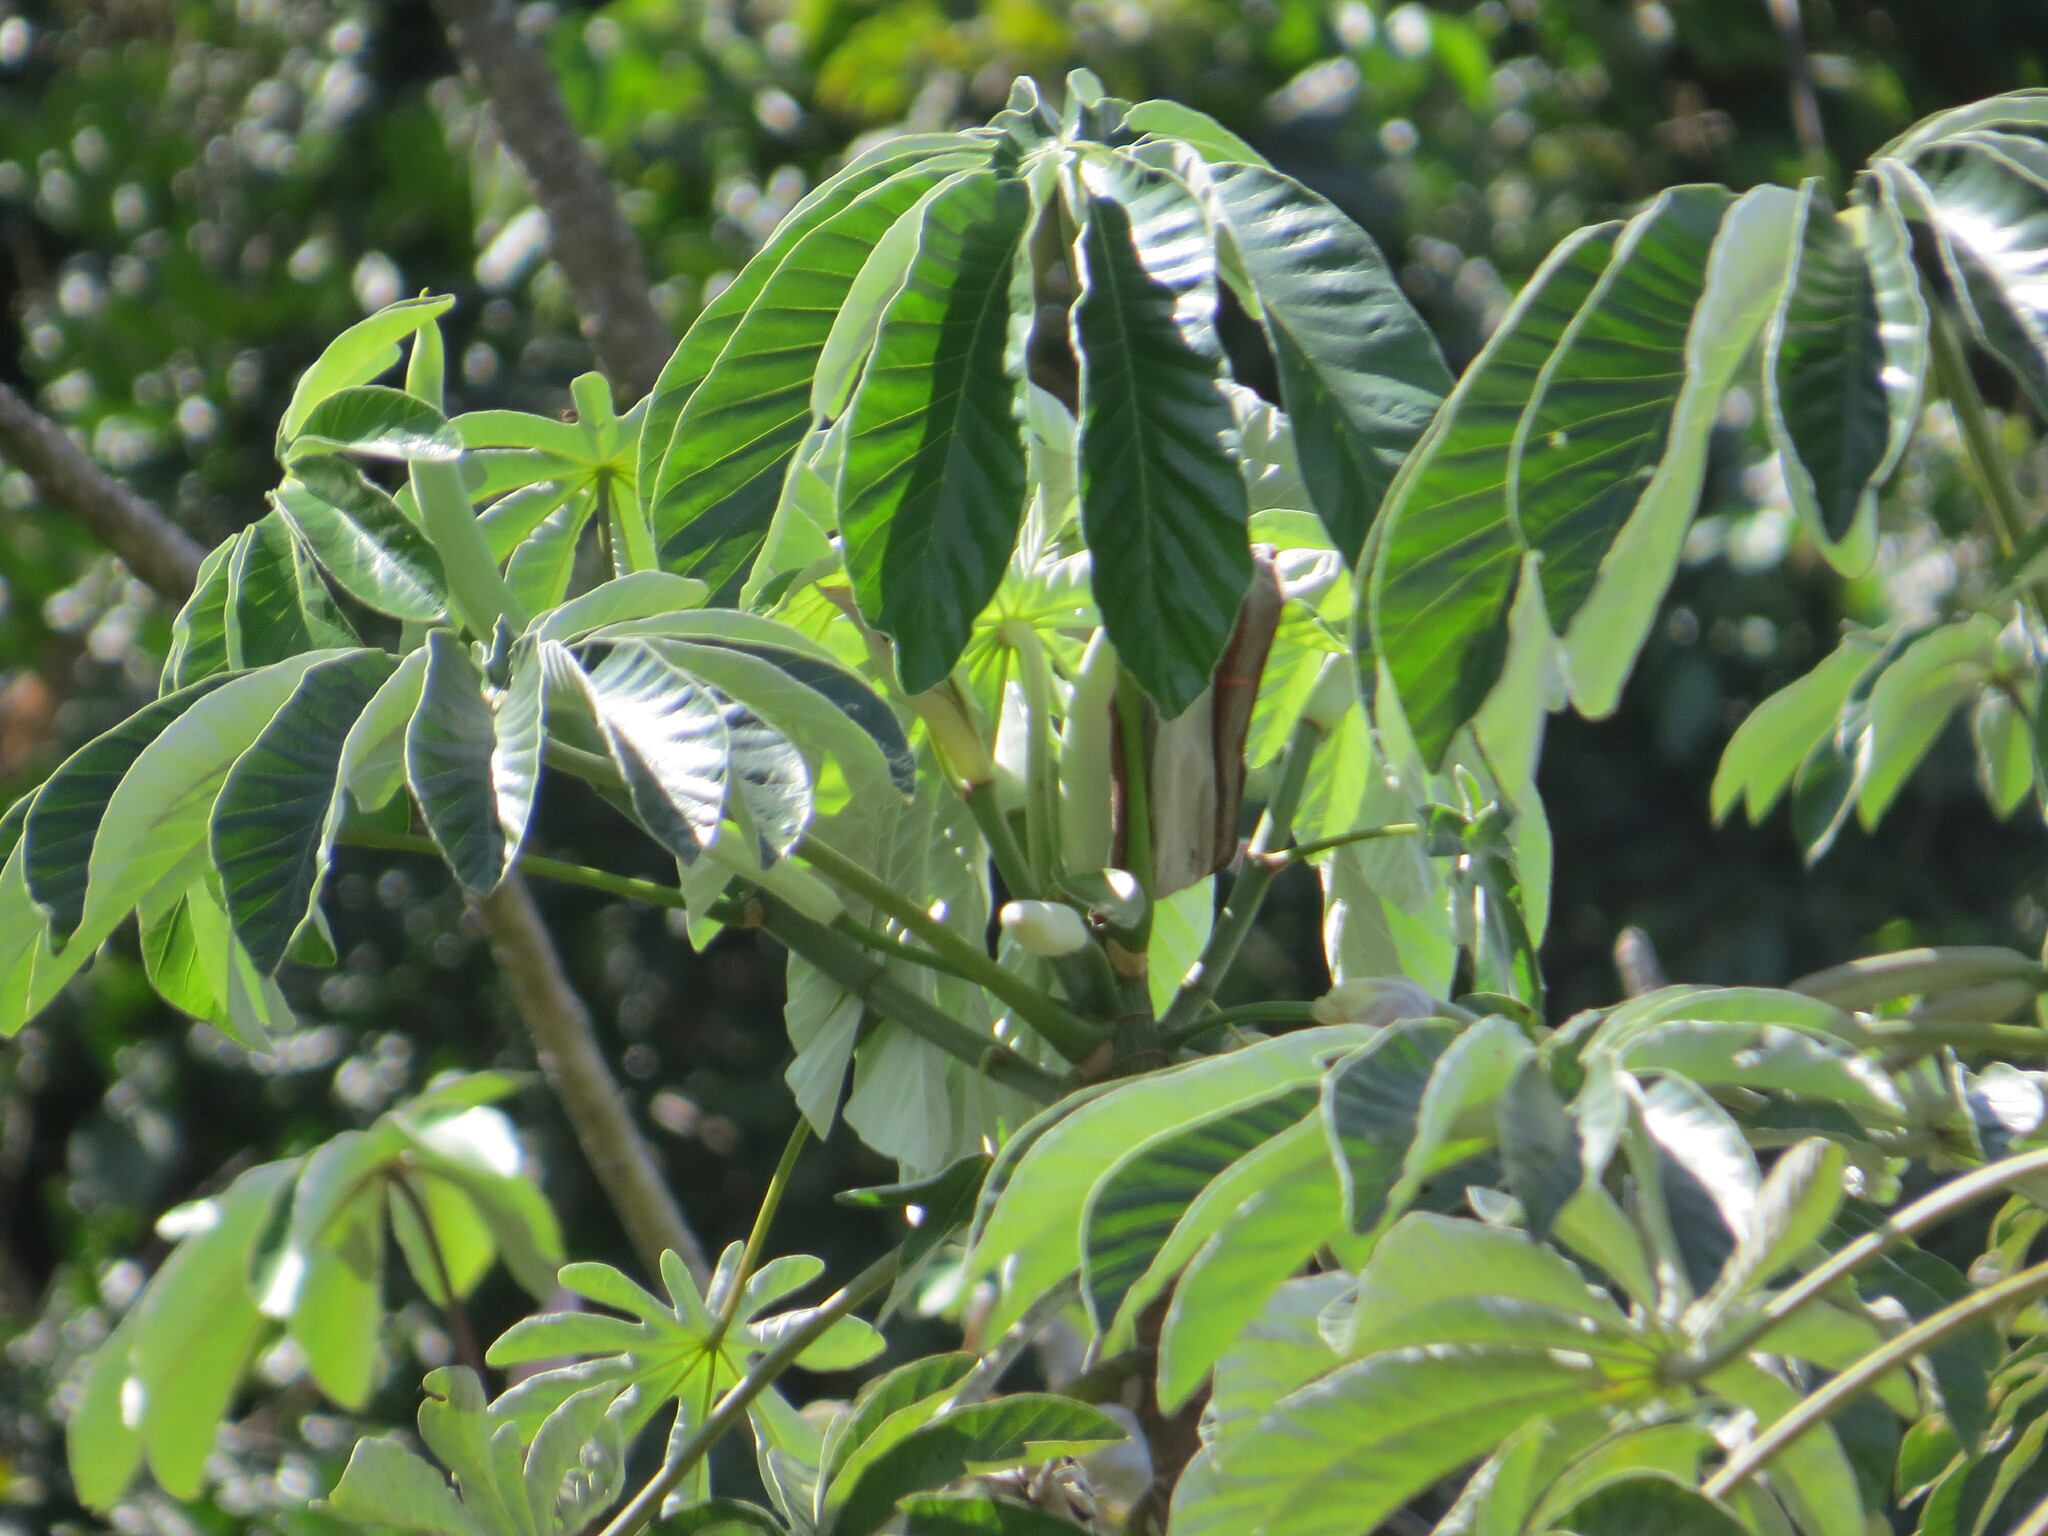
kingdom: Plantae
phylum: Tracheophyta
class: Magnoliopsida
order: Rosales
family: Urticaceae
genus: Cecropia
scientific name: Cecropia pachystachya
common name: Ambay pumpwood
